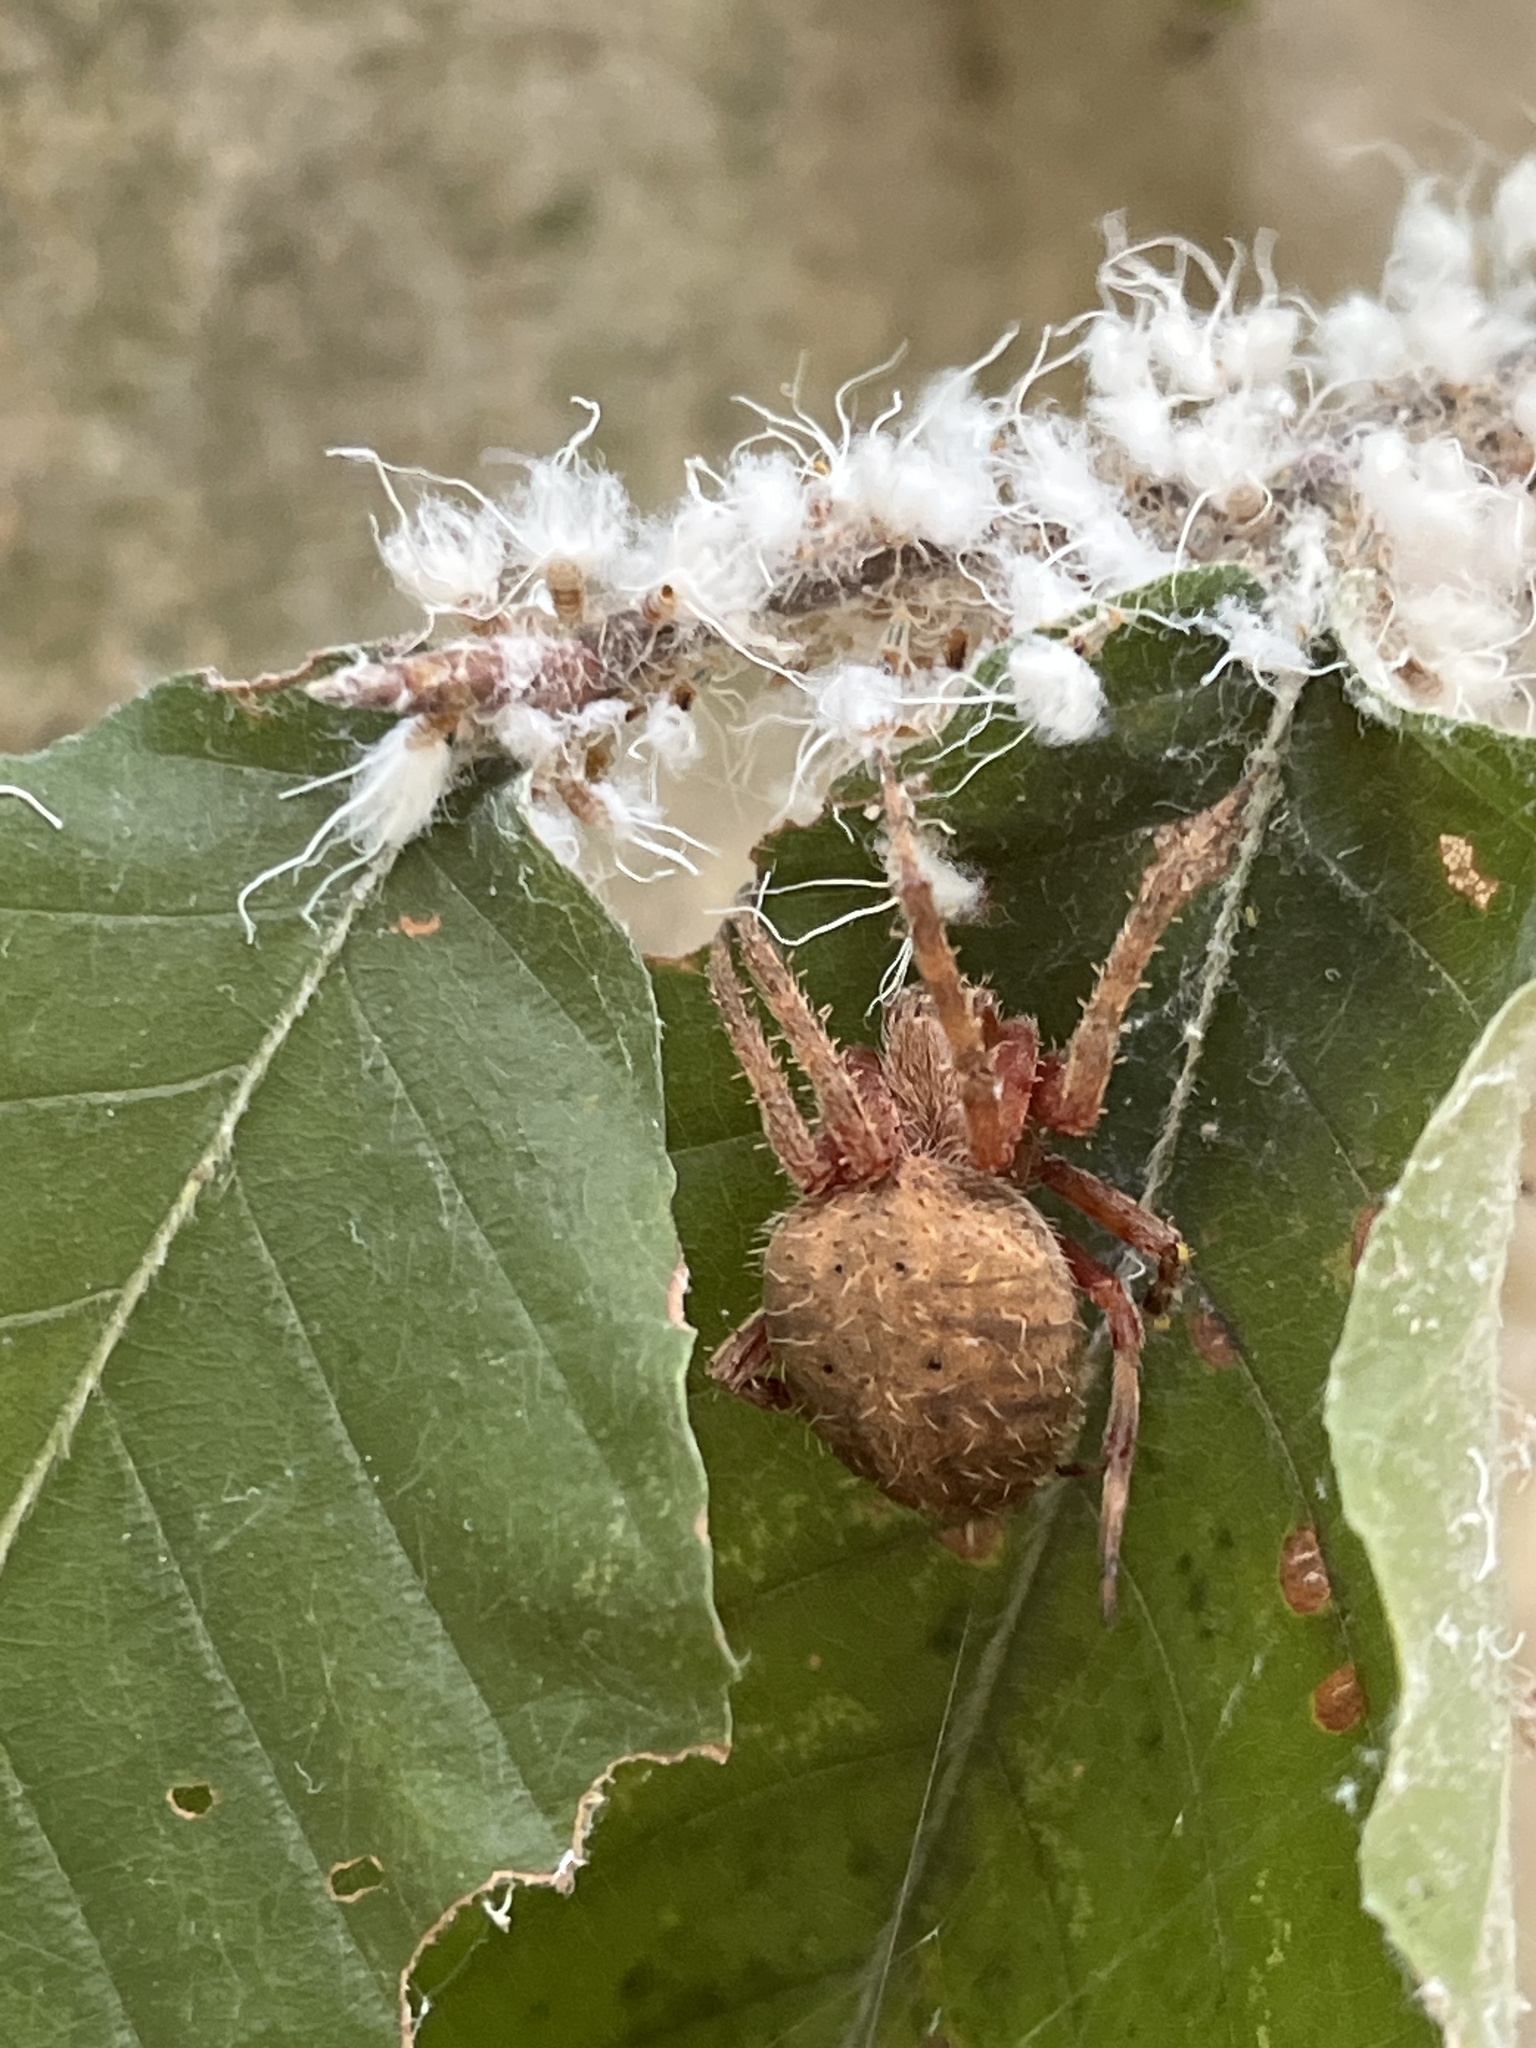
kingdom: Animalia
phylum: Arthropoda
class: Arachnida
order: Araneae
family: Araneidae
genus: Neoscona
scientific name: Neoscona crucifera
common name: Spotted orbweaver
